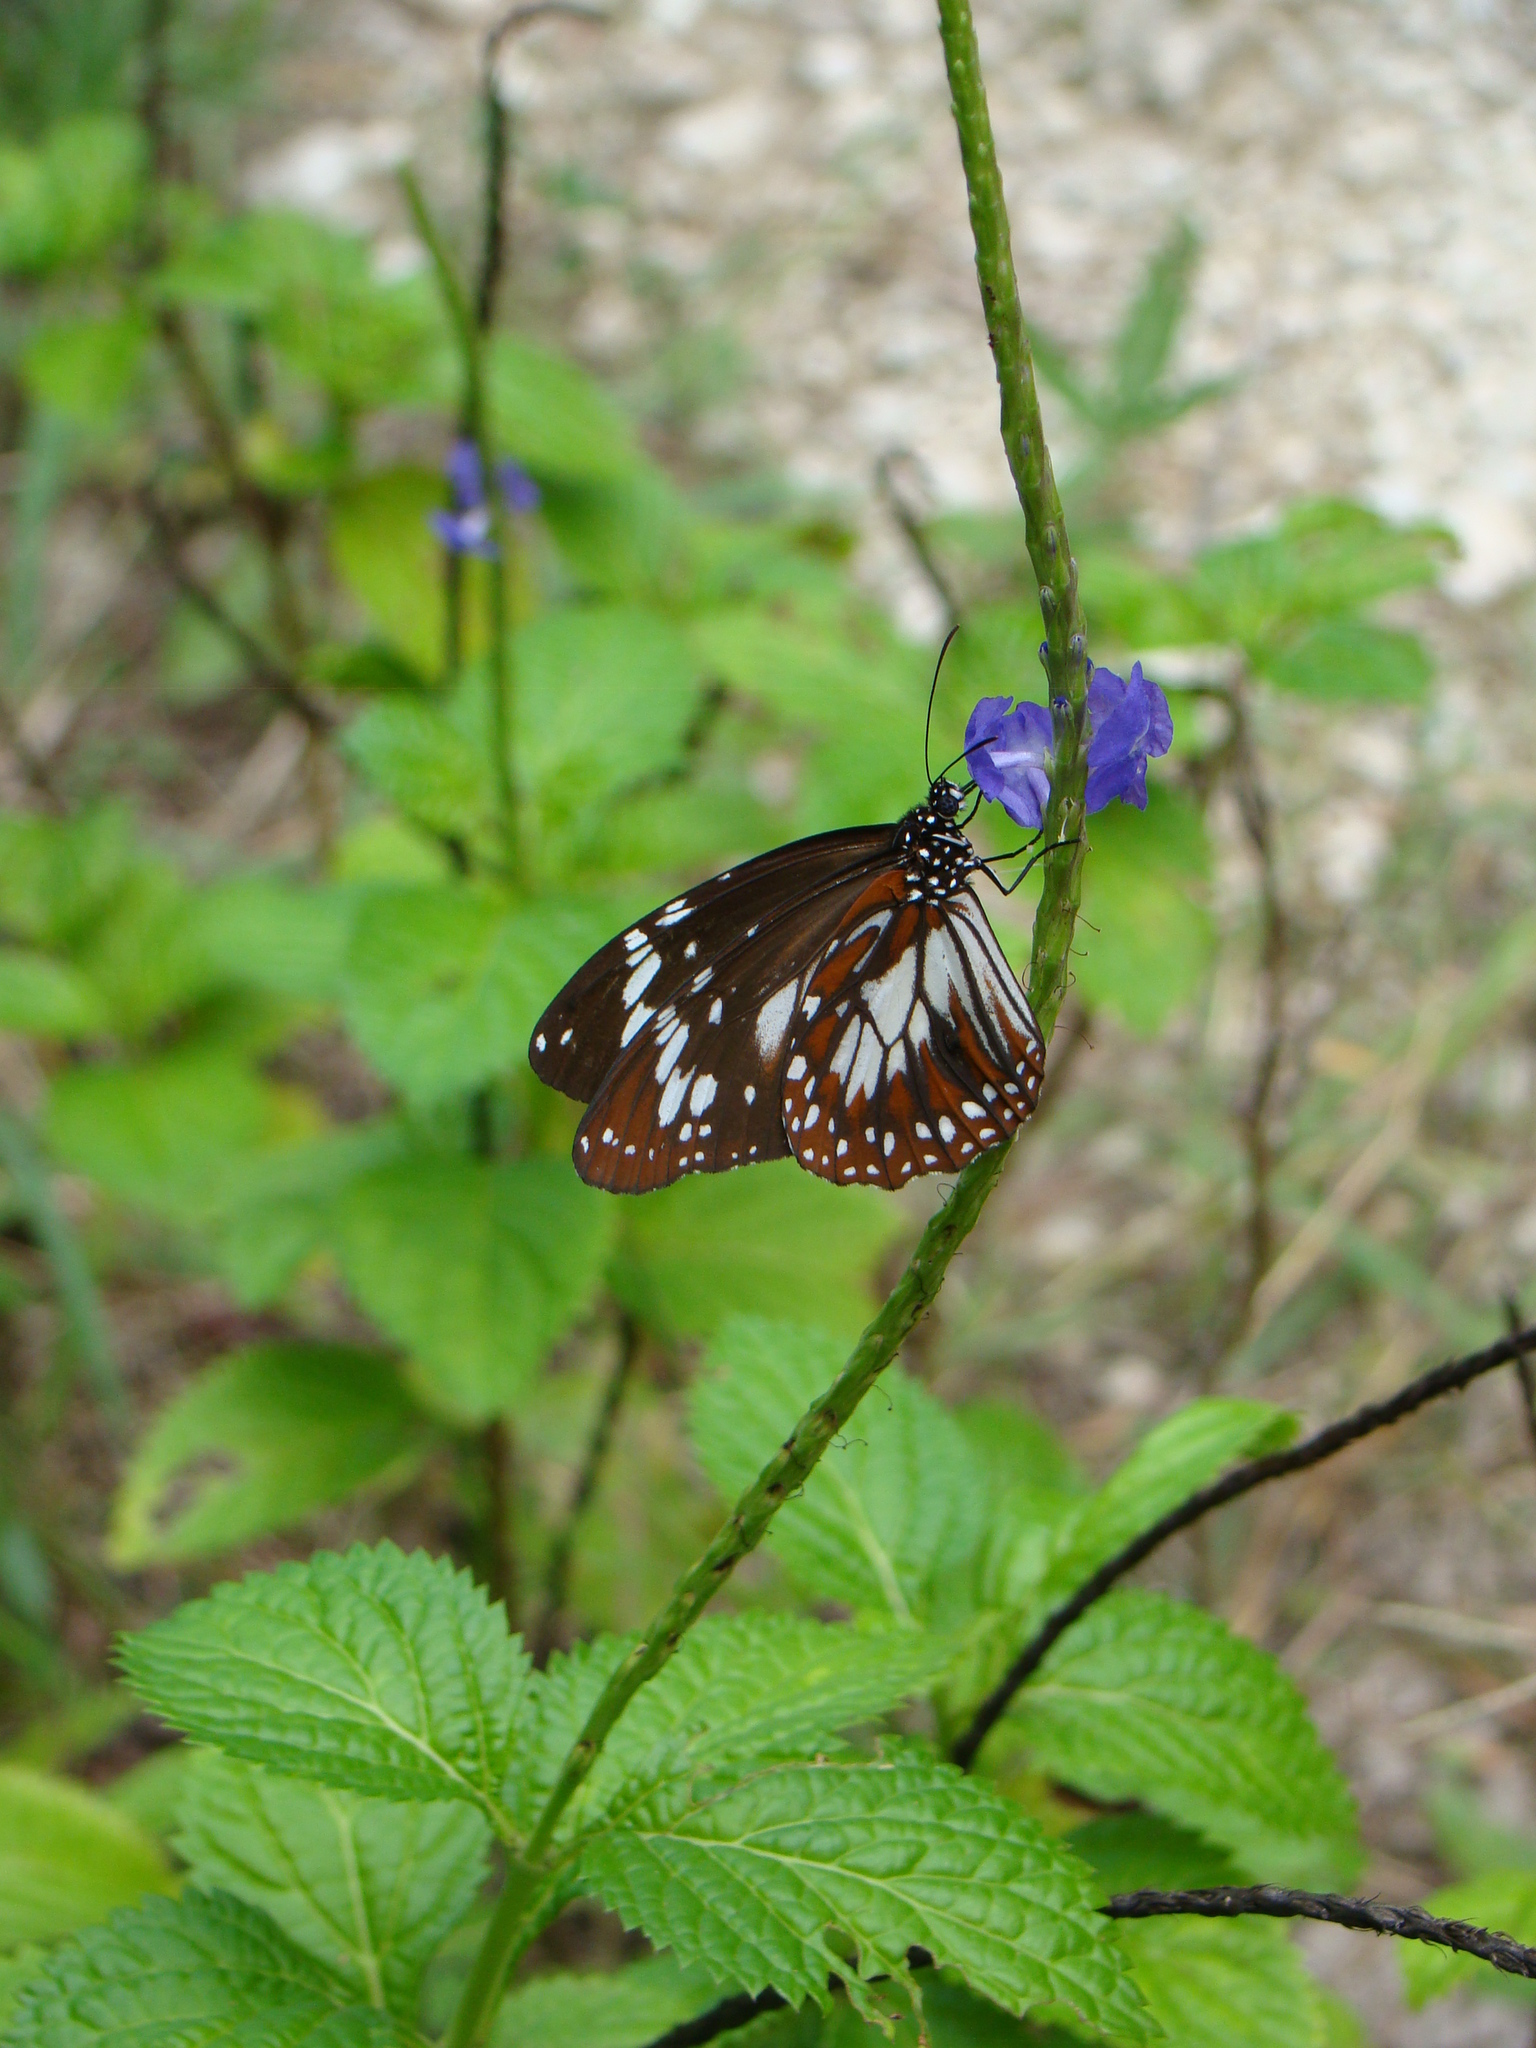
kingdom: Animalia
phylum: Arthropoda
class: Insecta
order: Lepidoptera
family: Nymphalidae
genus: Danaus
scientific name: Danaus affinis
